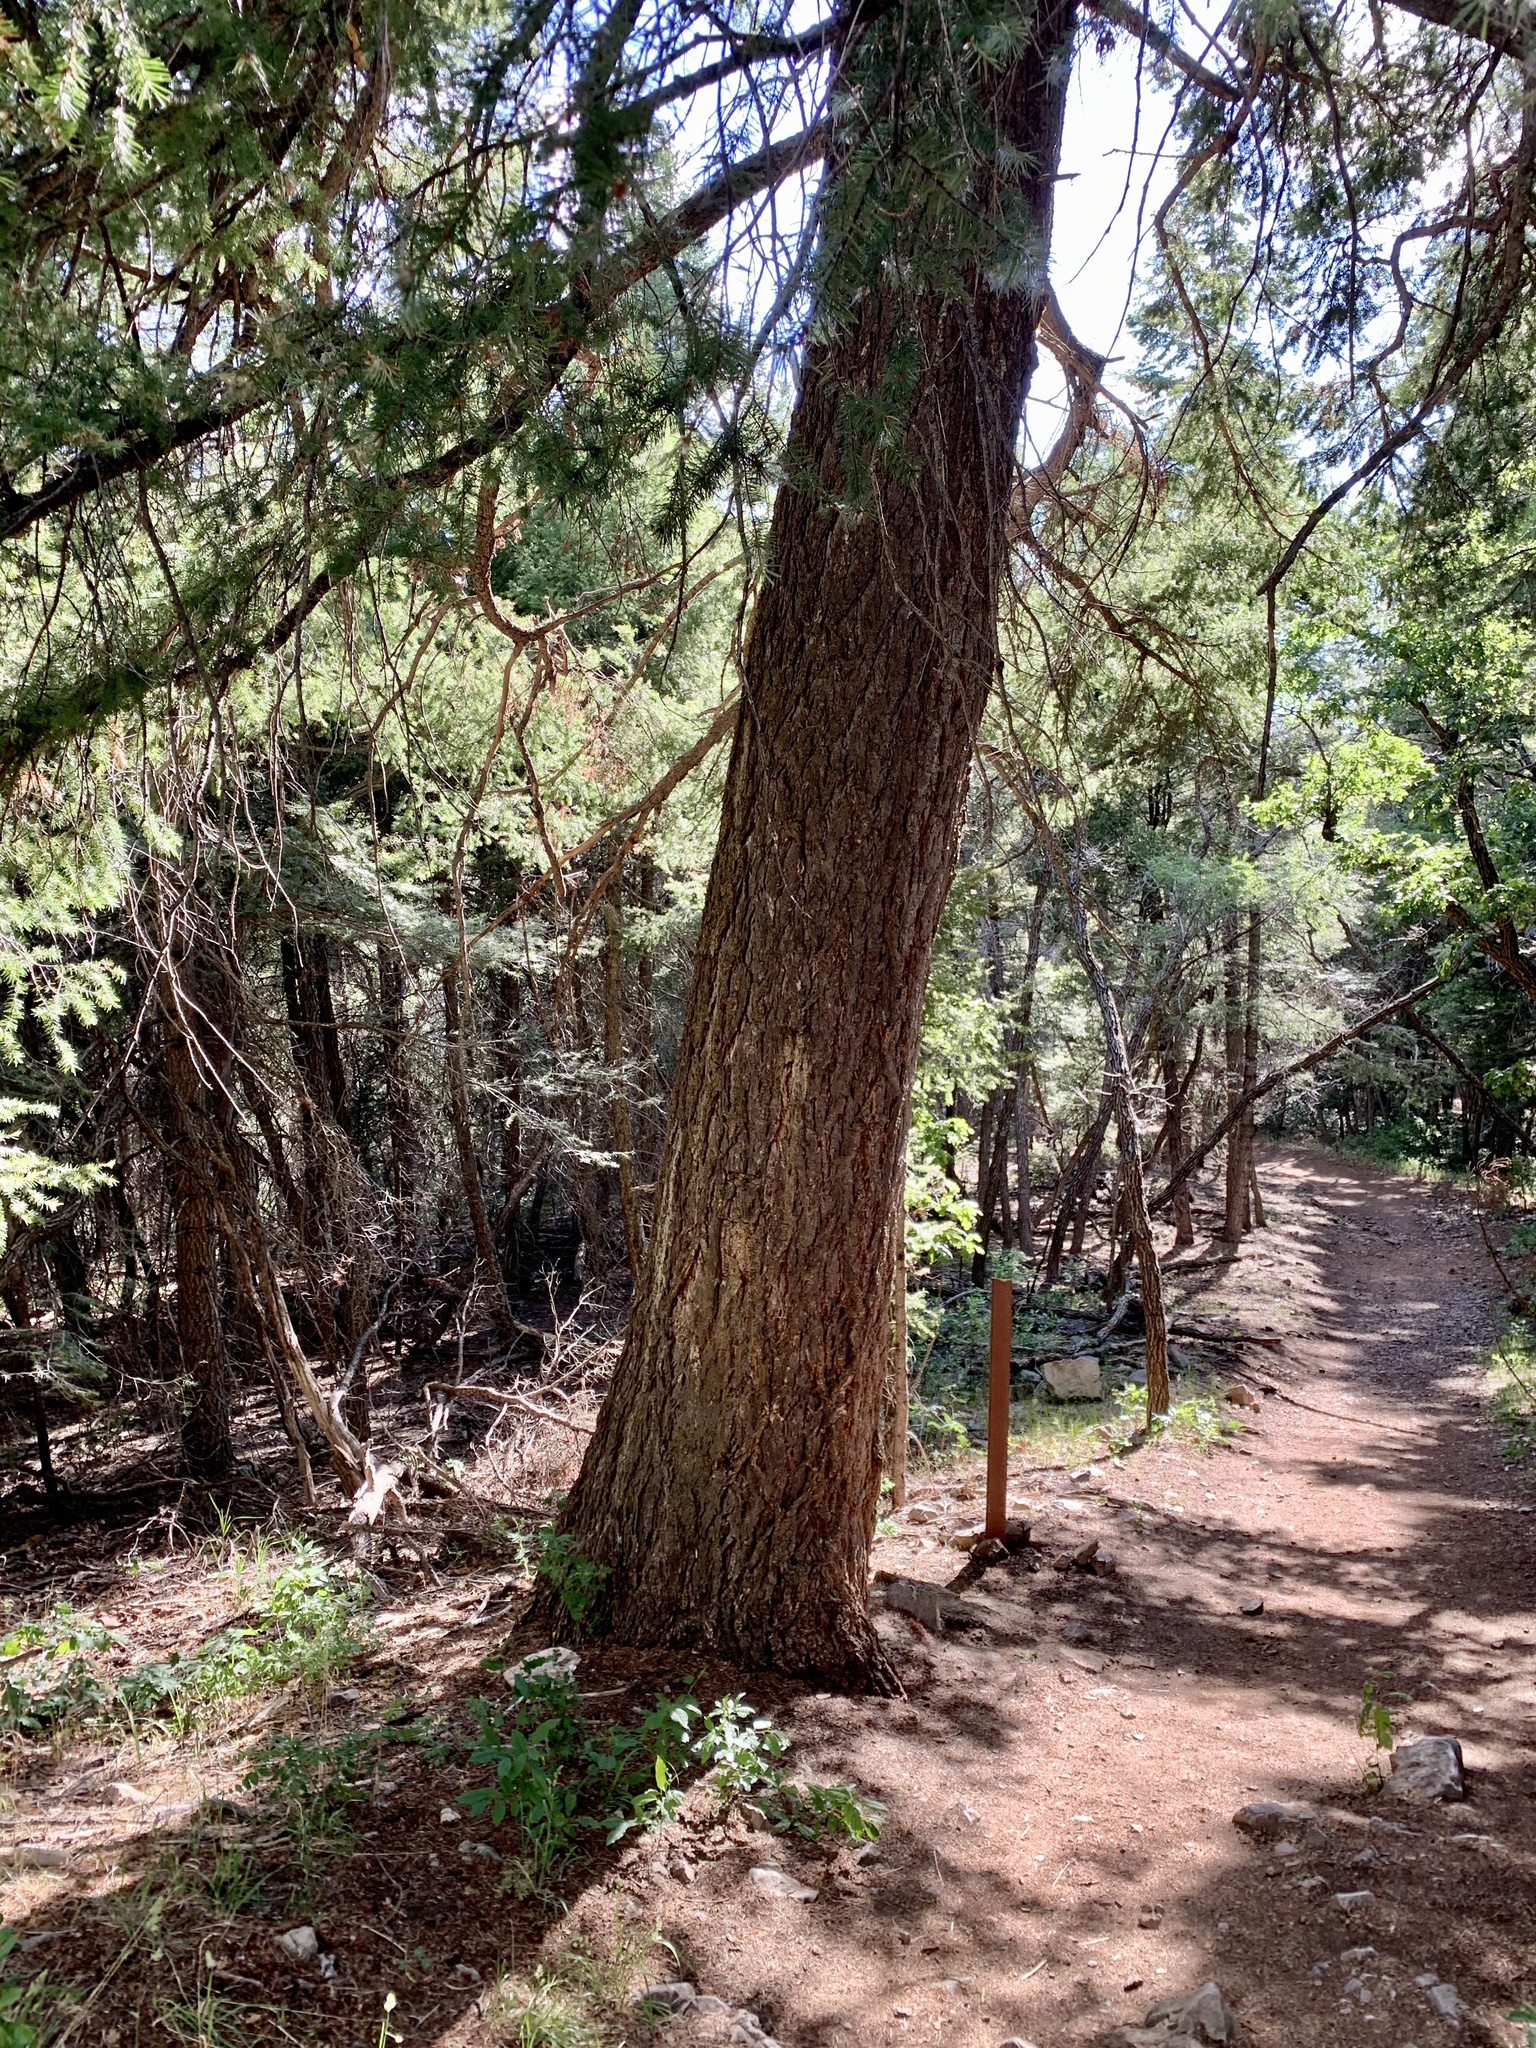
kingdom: Plantae
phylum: Tracheophyta
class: Pinopsida
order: Pinales
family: Pinaceae
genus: Pseudotsuga
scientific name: Pseudotsuga menziesii
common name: Douglas fir
